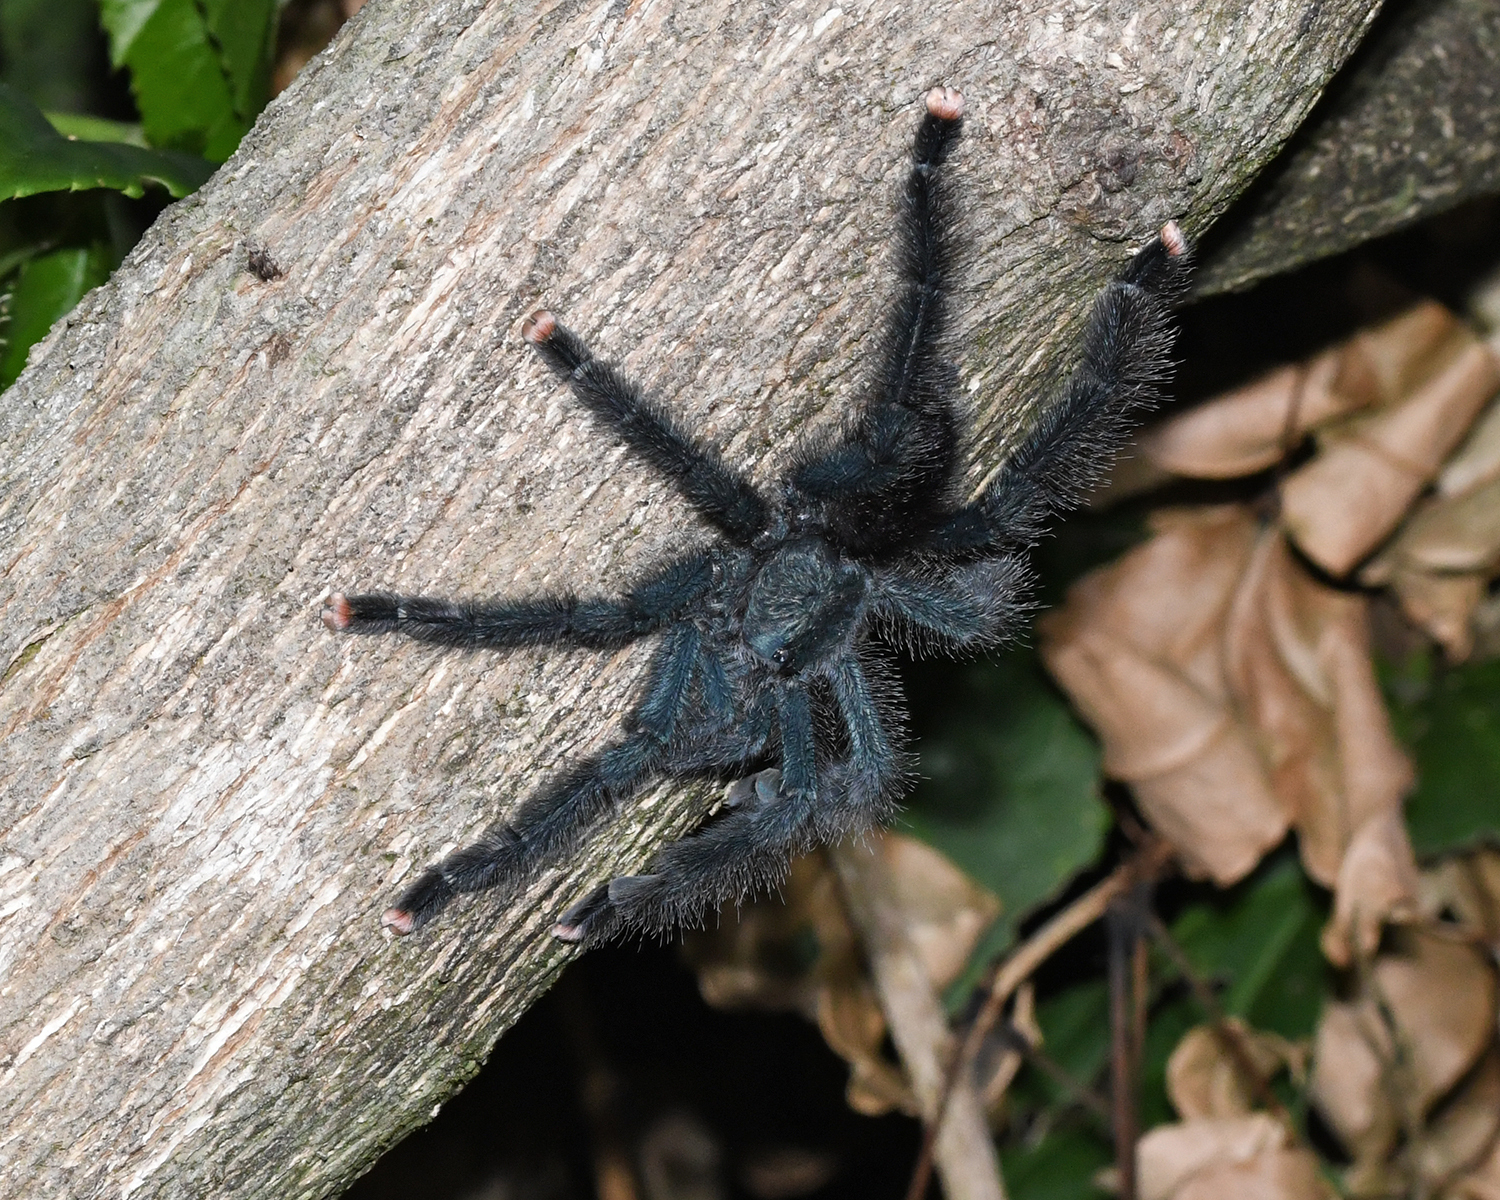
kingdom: Animalia
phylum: Arthropoda
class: Arachnida
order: Araneae
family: Theraphosidae
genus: Avicularia
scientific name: Avicularia avicularia
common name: Tarantula spiders
